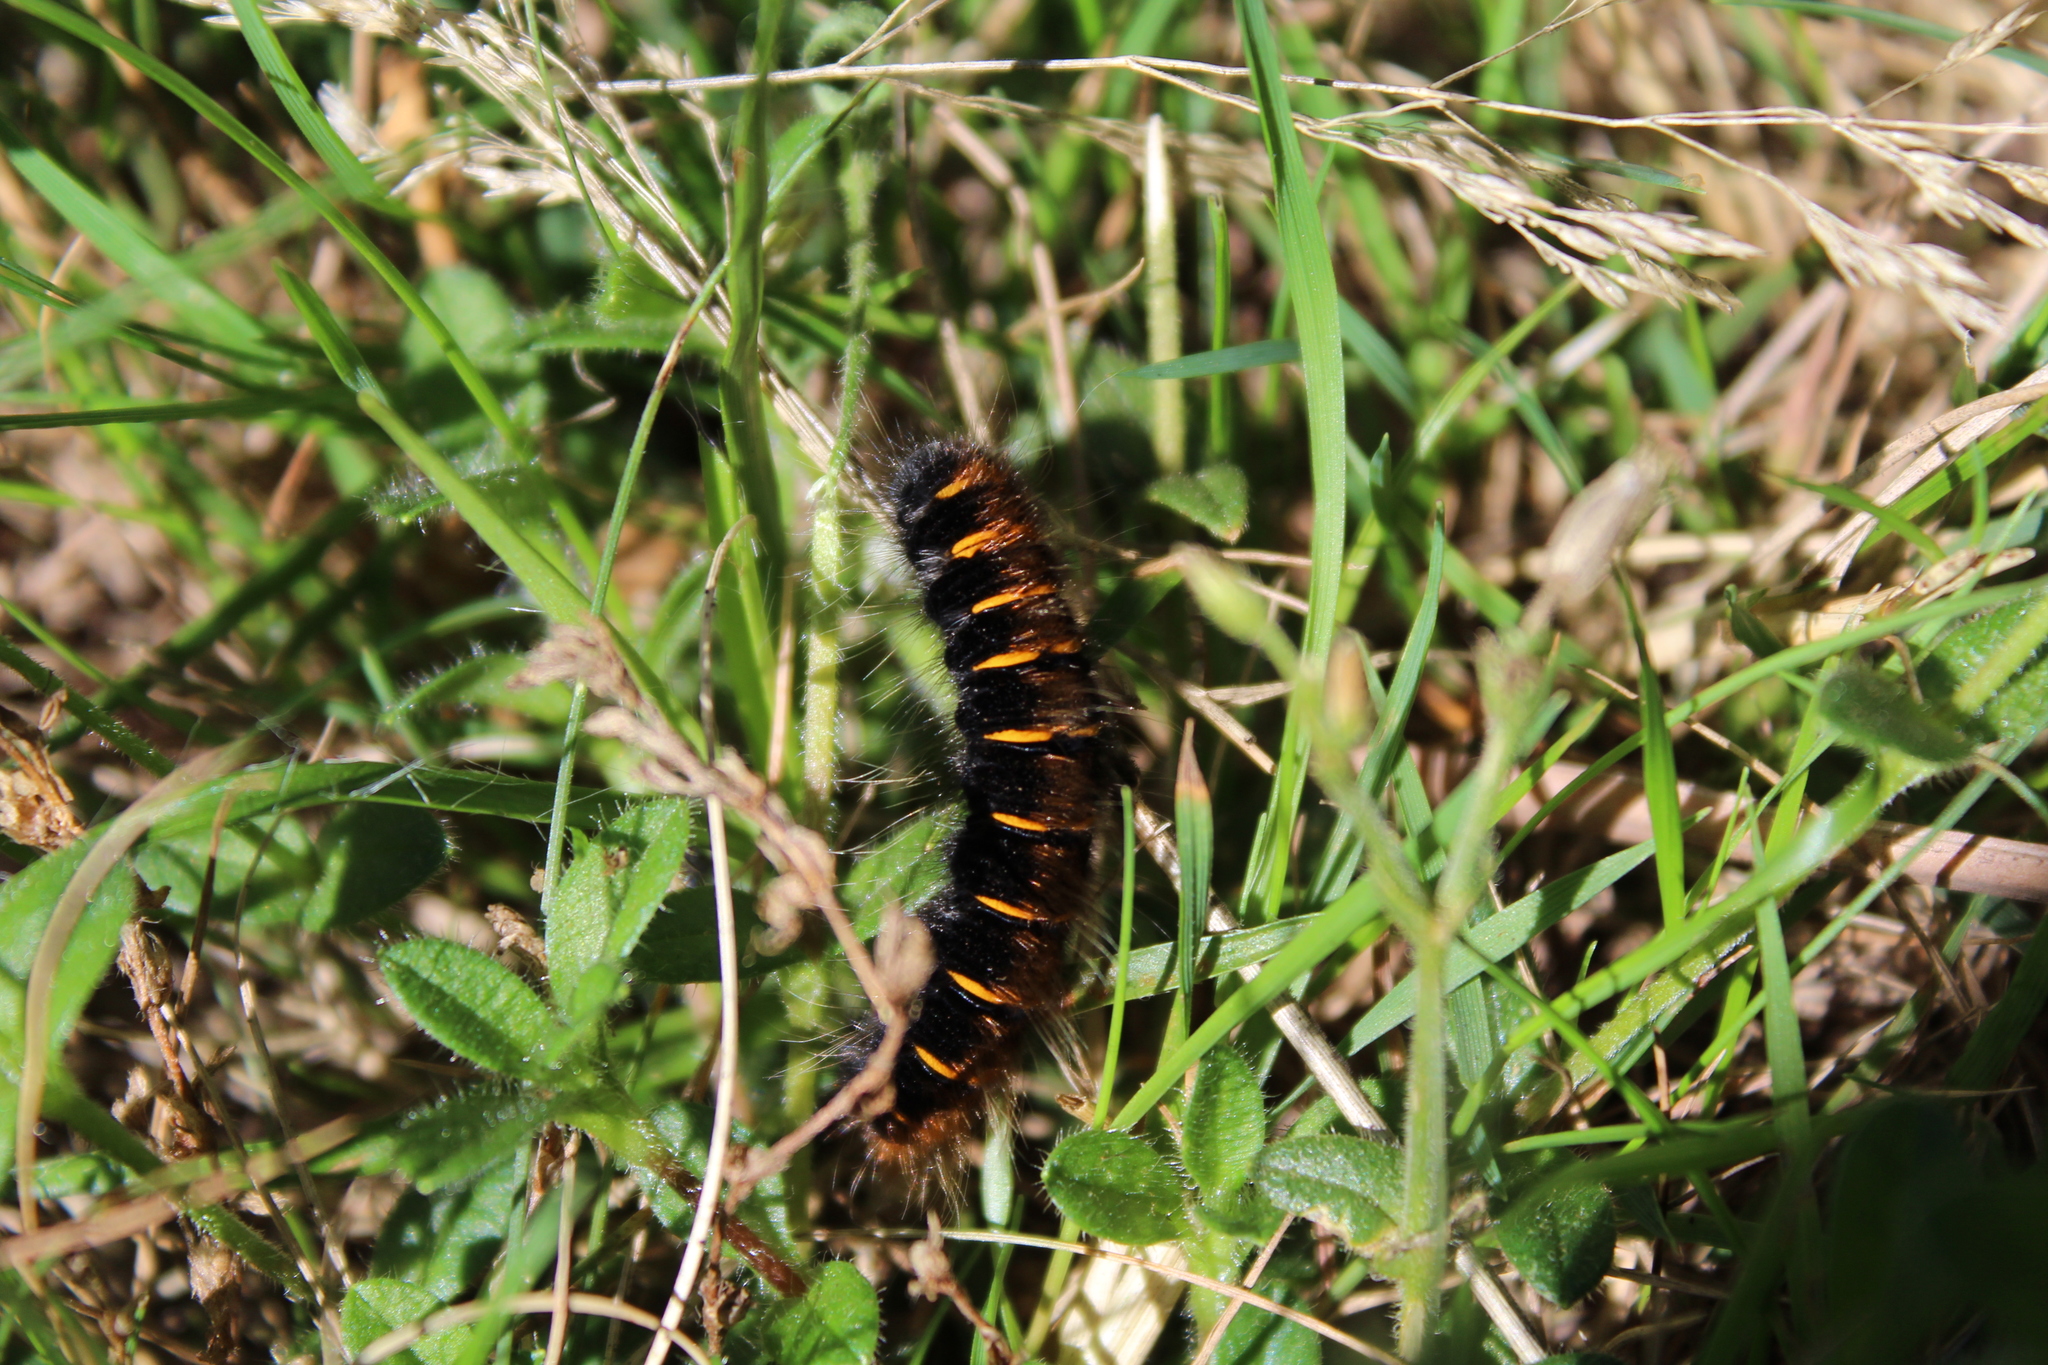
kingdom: Animalia
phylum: Arthropoda
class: Insecta
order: Lepidoptera
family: Lasiocampidae
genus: Macrothylacia
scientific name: Macrothylacia rubi
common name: Fox moth
